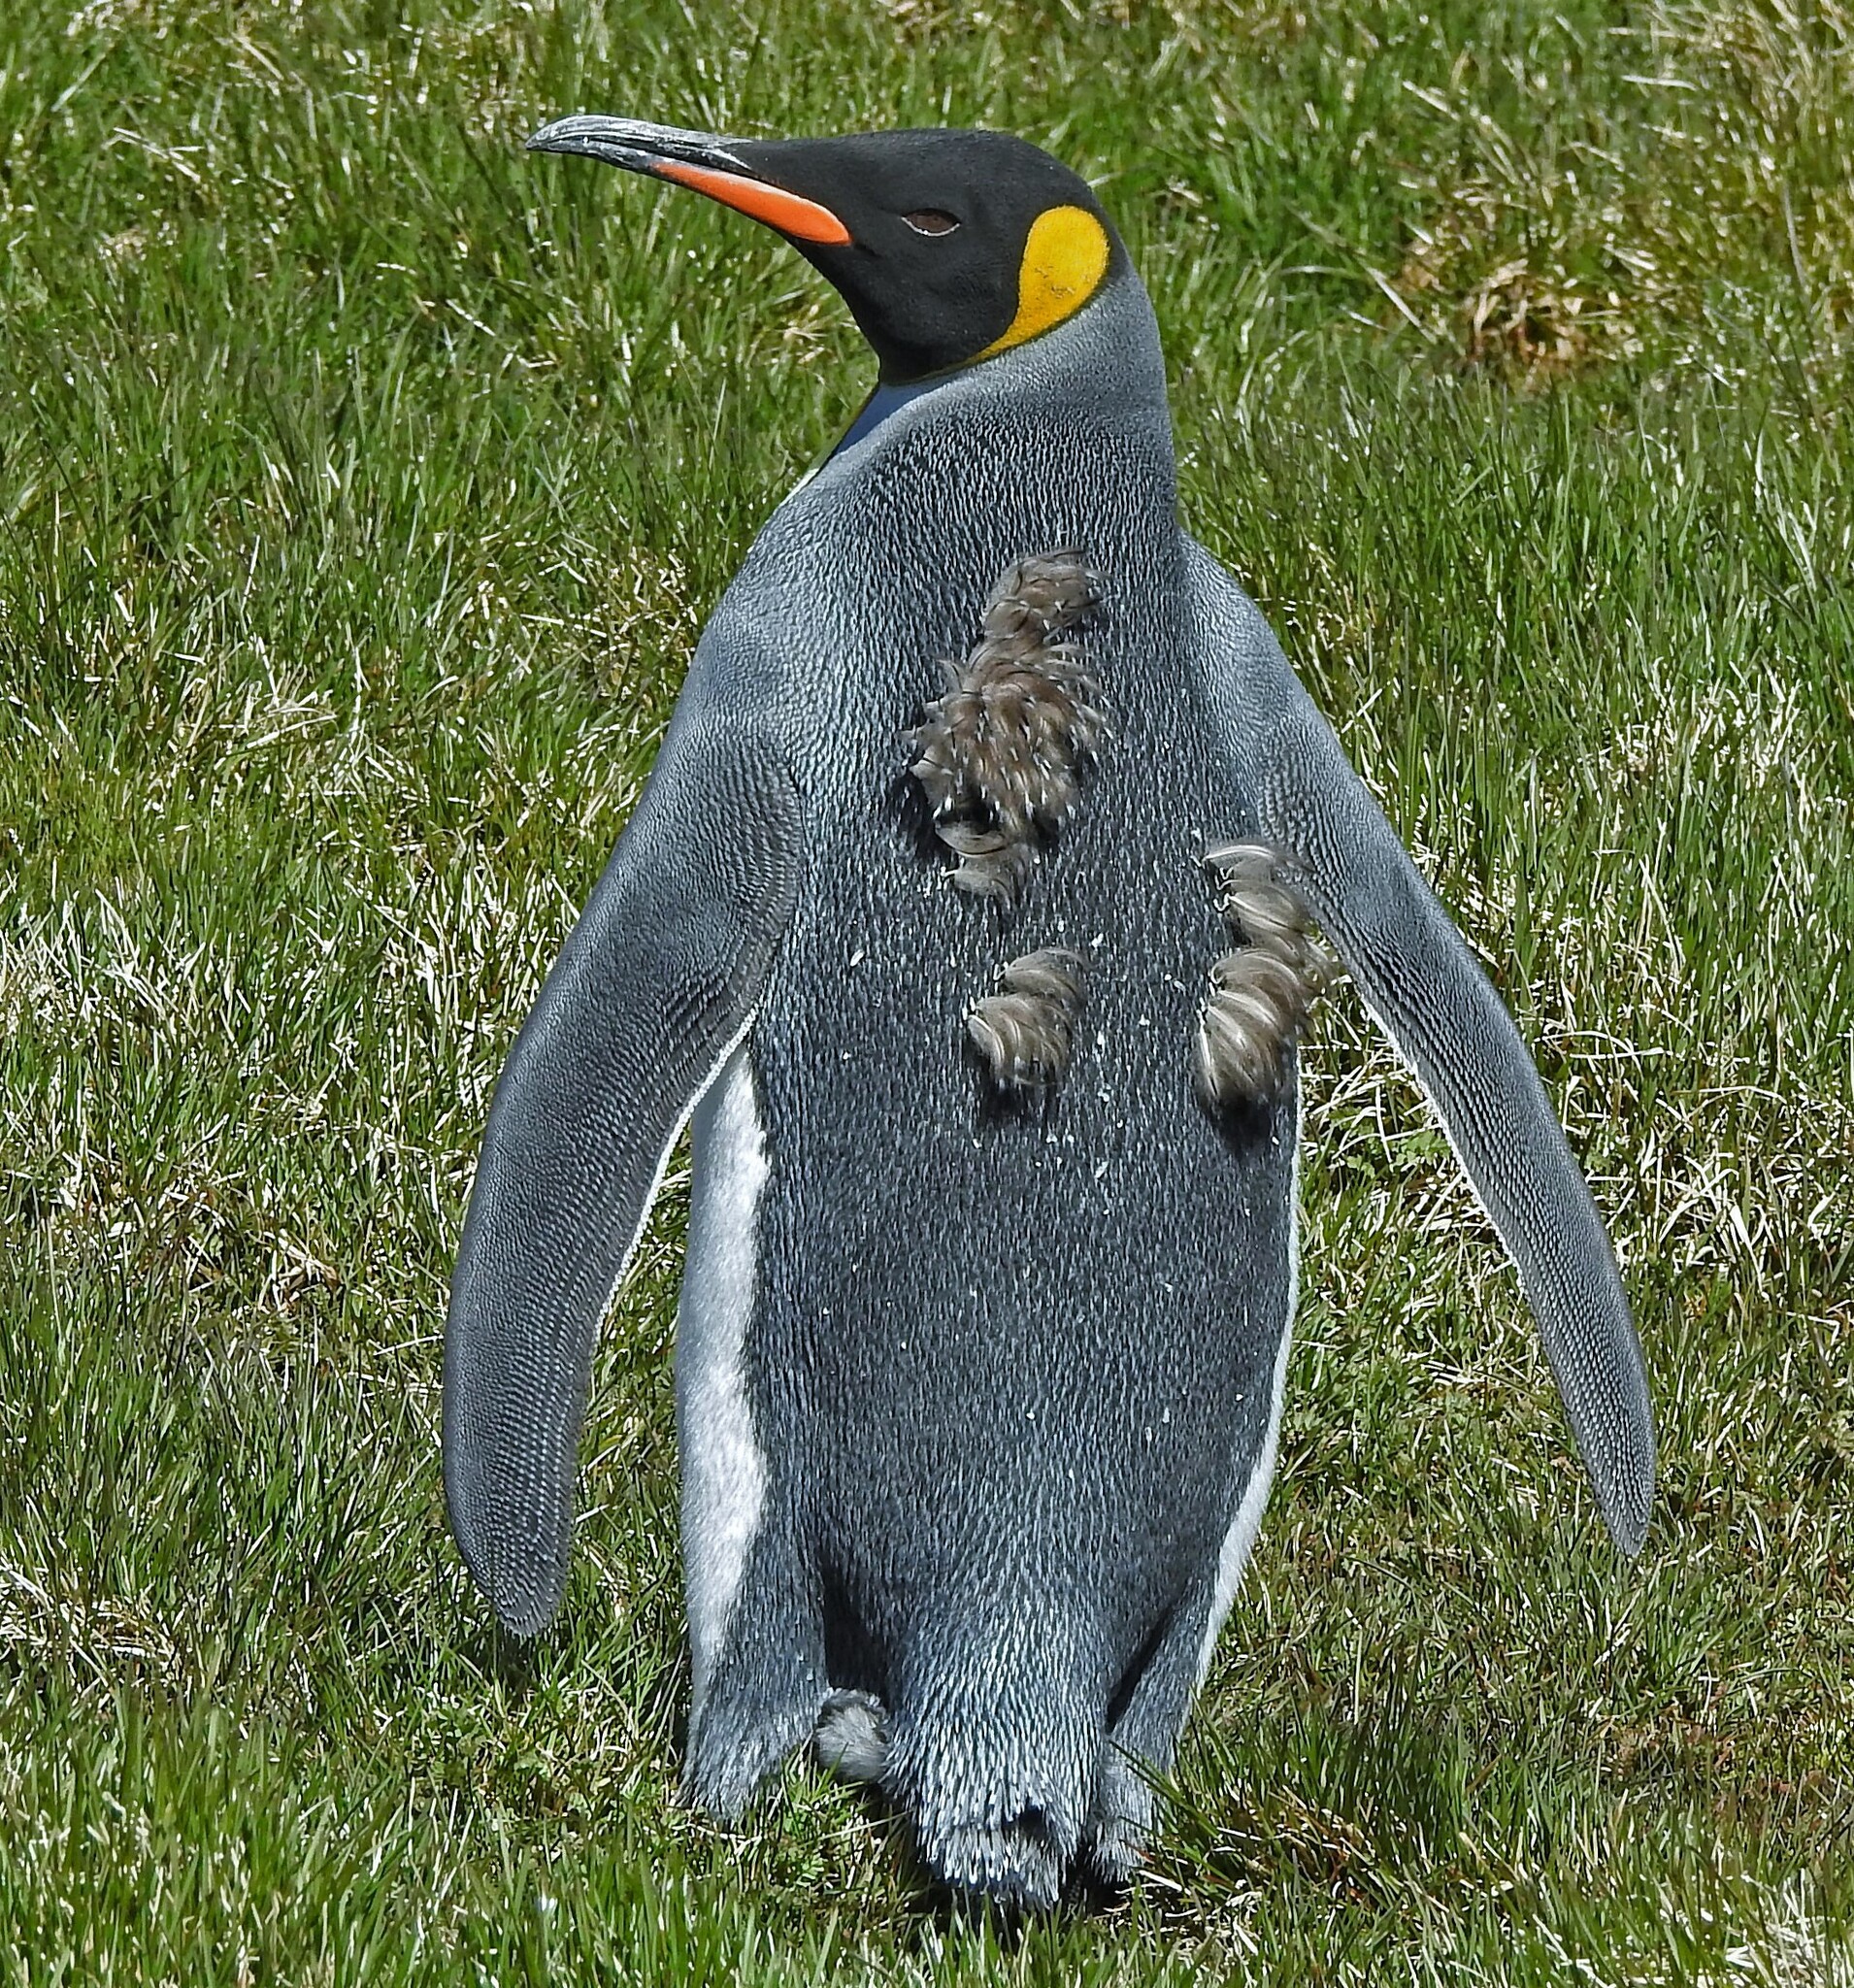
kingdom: Animalia
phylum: Chordata
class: Aves
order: Sphenisciformes
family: Spheniscidae
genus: Aptenodytes
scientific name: Aptenodytes patagonicus
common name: King penguin
